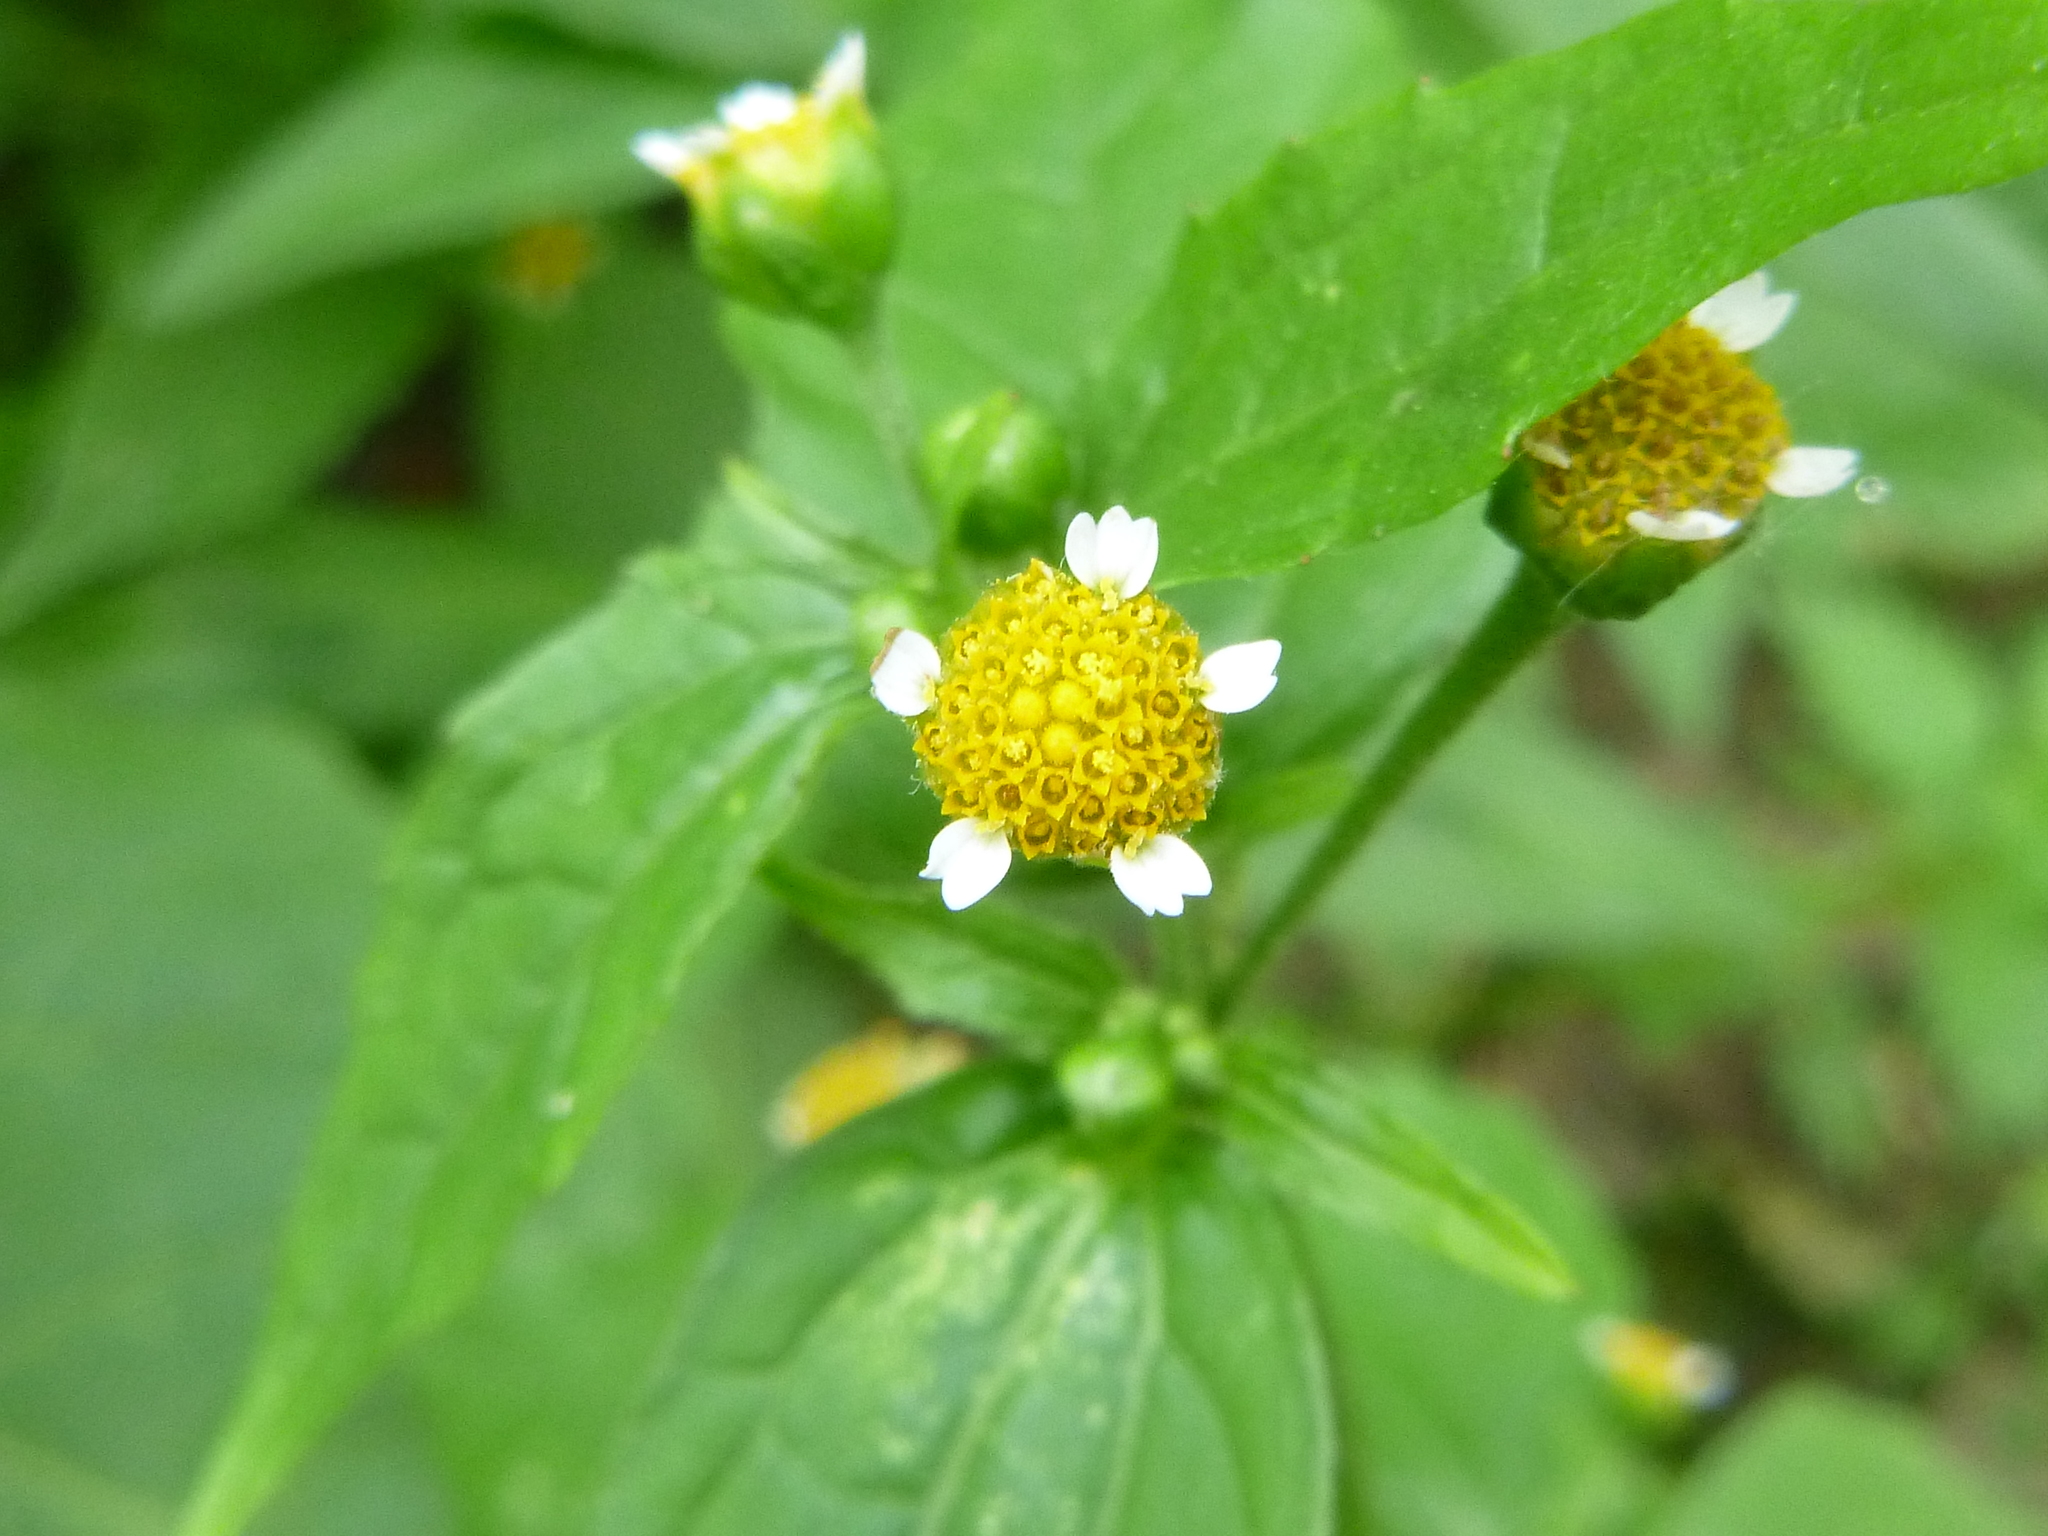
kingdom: Plantae
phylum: Tracheophyta
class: Magnoliopsida
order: Asterales
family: Asteraceae
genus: Galinsoga
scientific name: Galinsoga parviflora
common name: Gallant soldier
